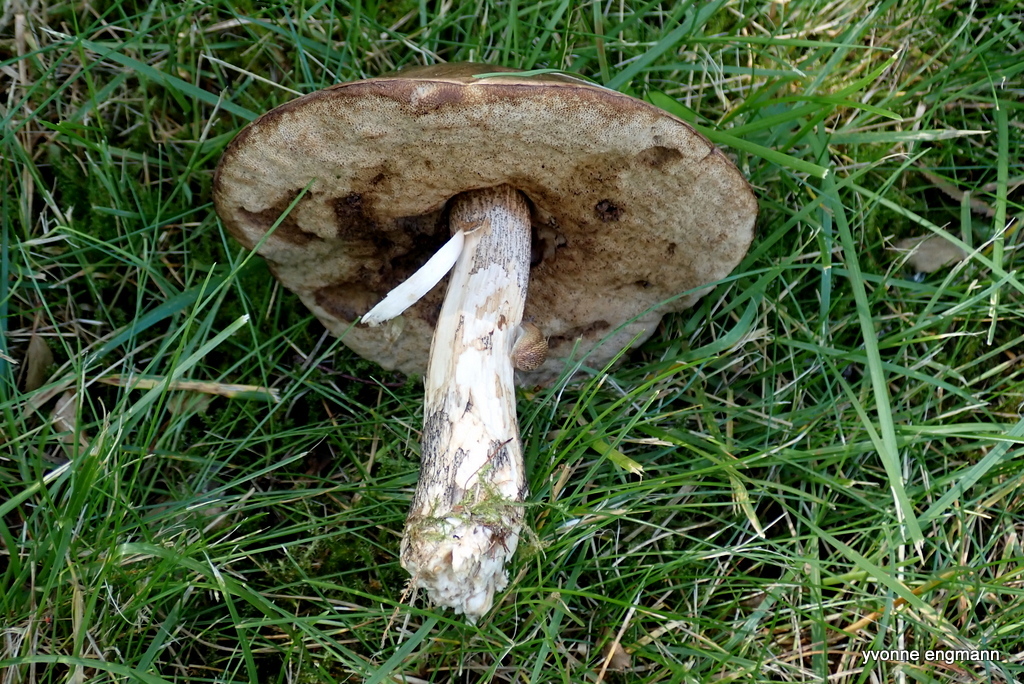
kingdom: Fungi
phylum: Basidiomycota
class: Agaricomycetes
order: Boletales
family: Boletaceae
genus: Leccinum
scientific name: Leccinum scabrum
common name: Blushing bolete
